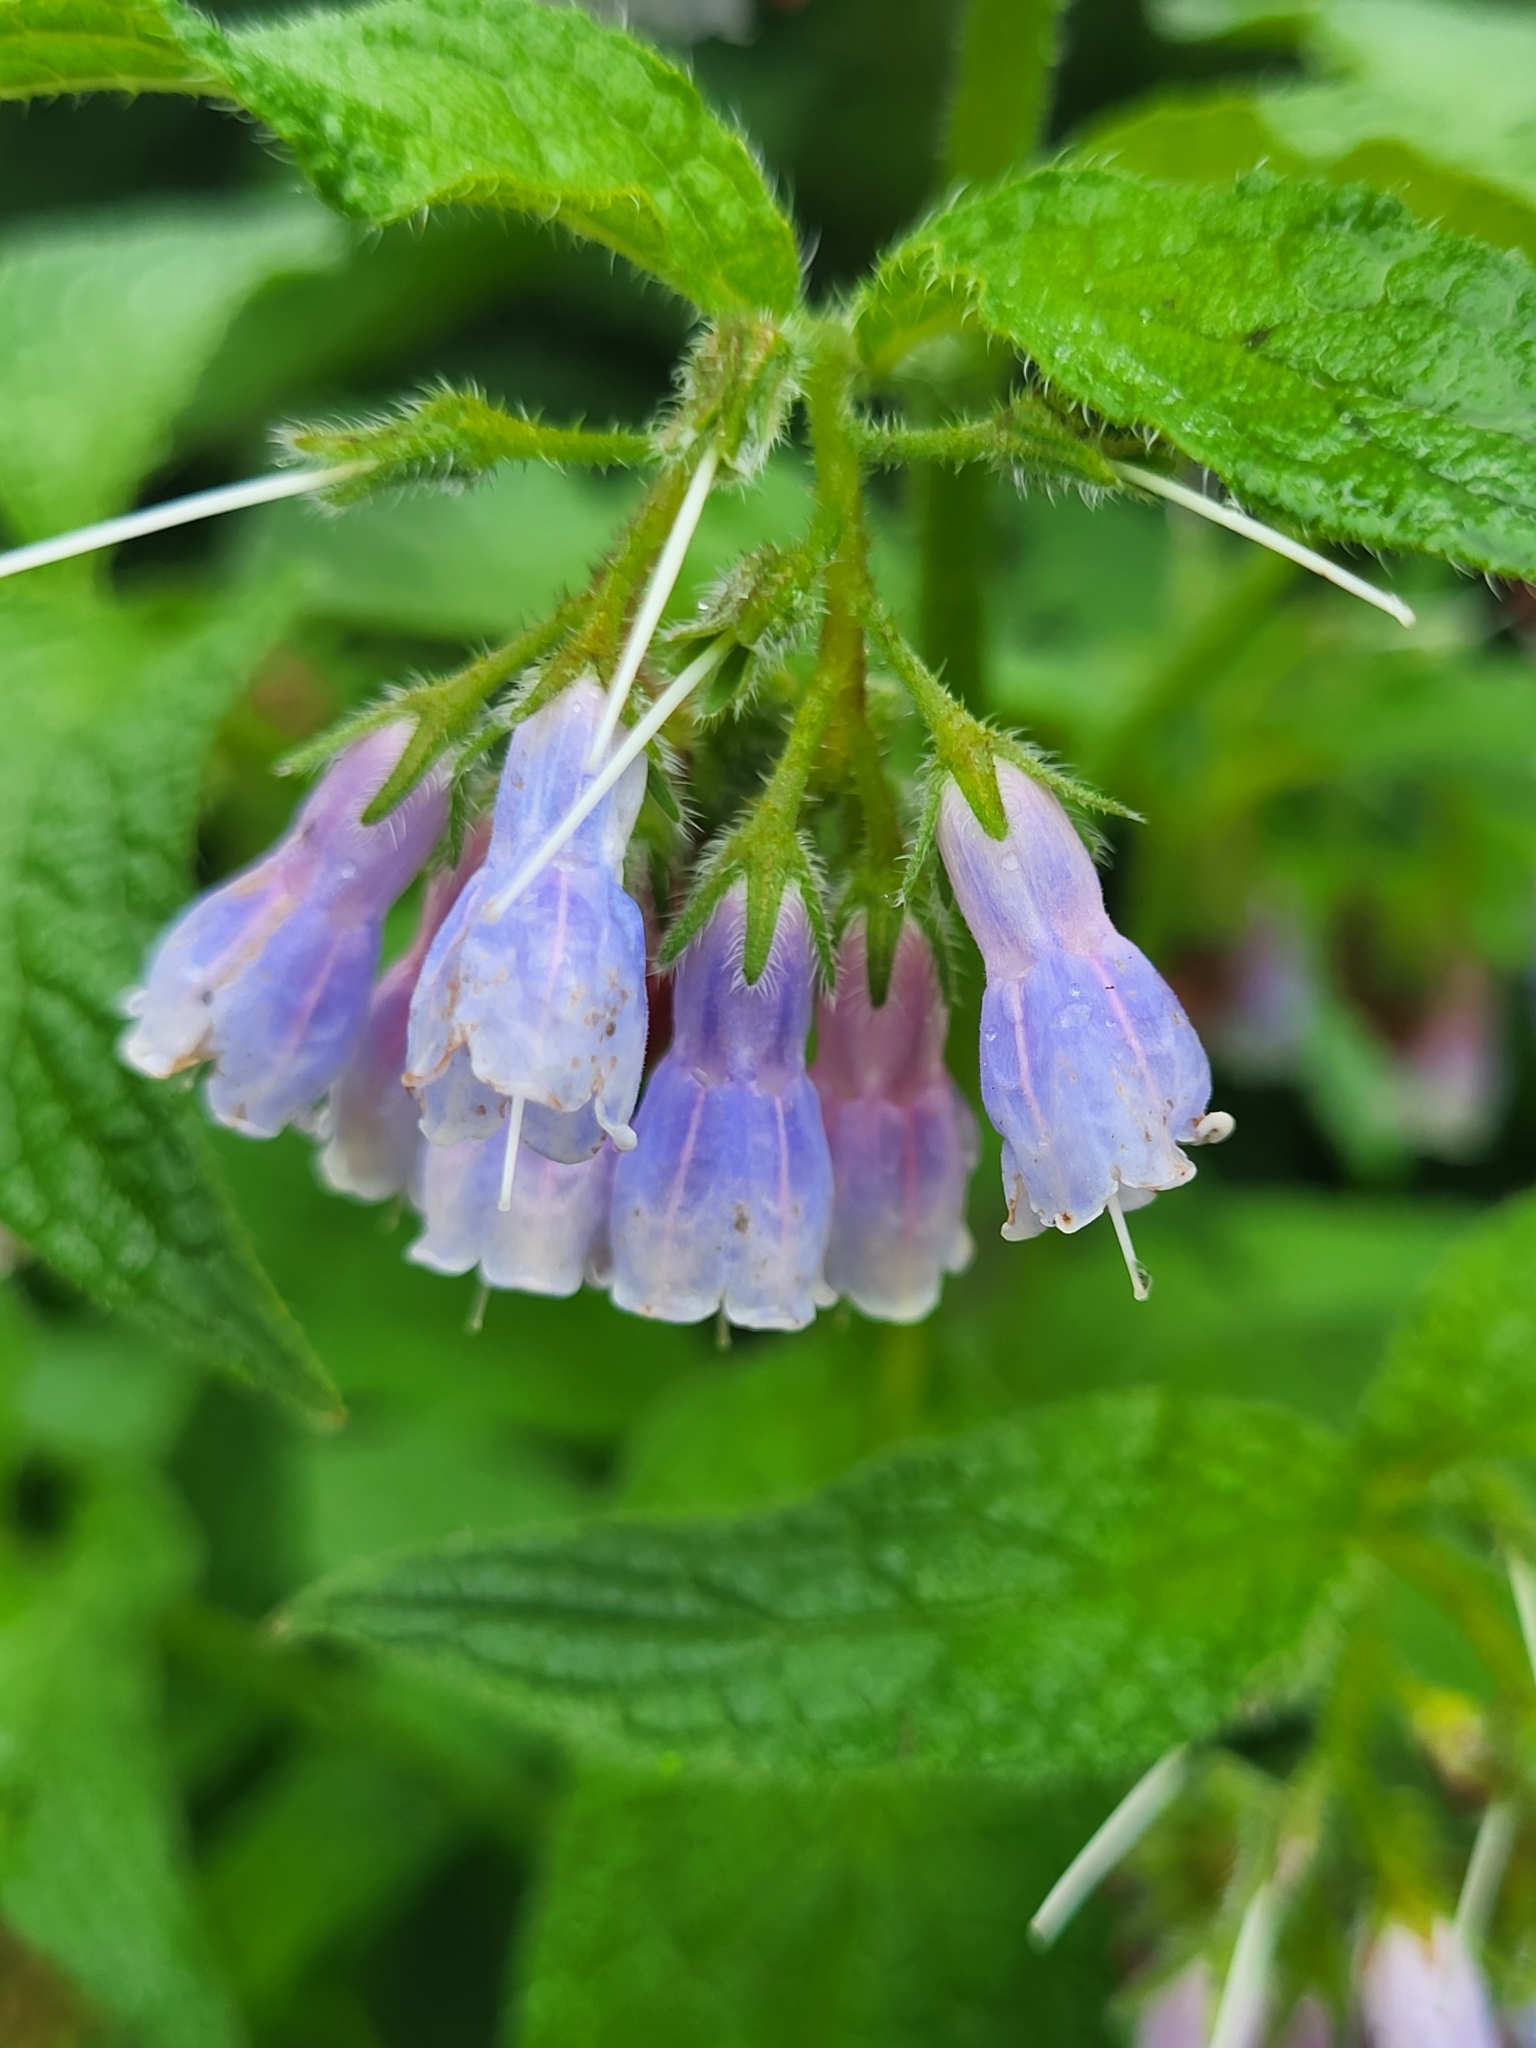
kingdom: Plantae
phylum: Tracheophyta
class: Magnoliopsida
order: Boraginales
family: Boraginaceae
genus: Symphytum
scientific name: Symphytum asperum
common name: Prickly comfrey
